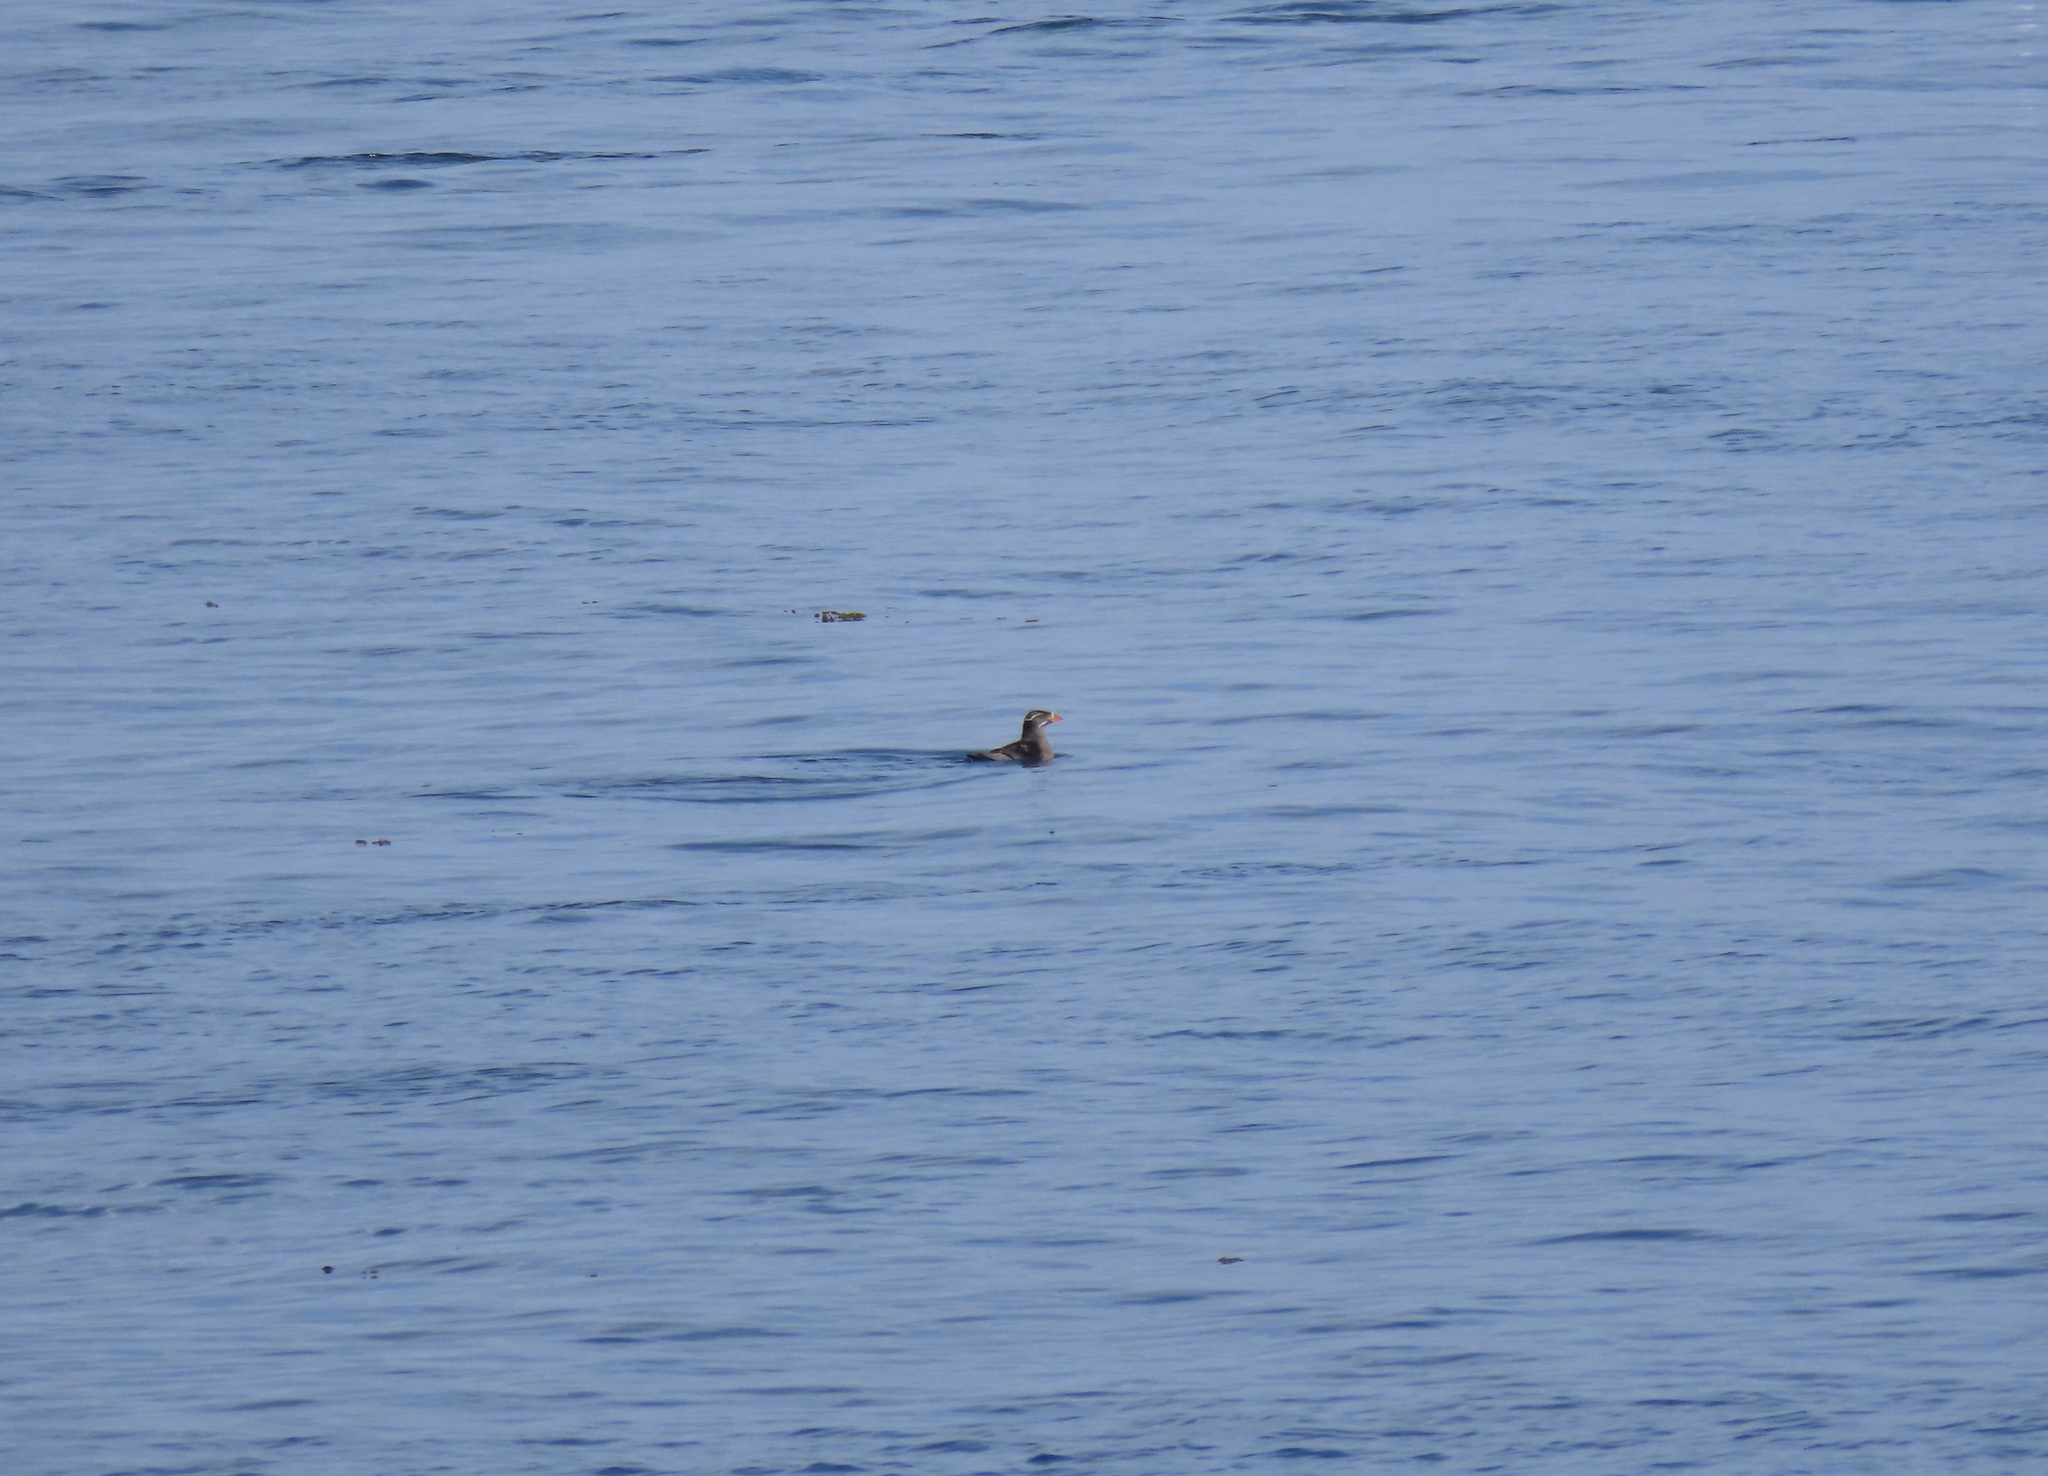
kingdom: Animalia
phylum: Chordata
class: Aves
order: Charadriiformes
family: Alcidae
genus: Cerorhinca
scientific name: Cerorhinca monocerata
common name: Rhinoceros auklet
